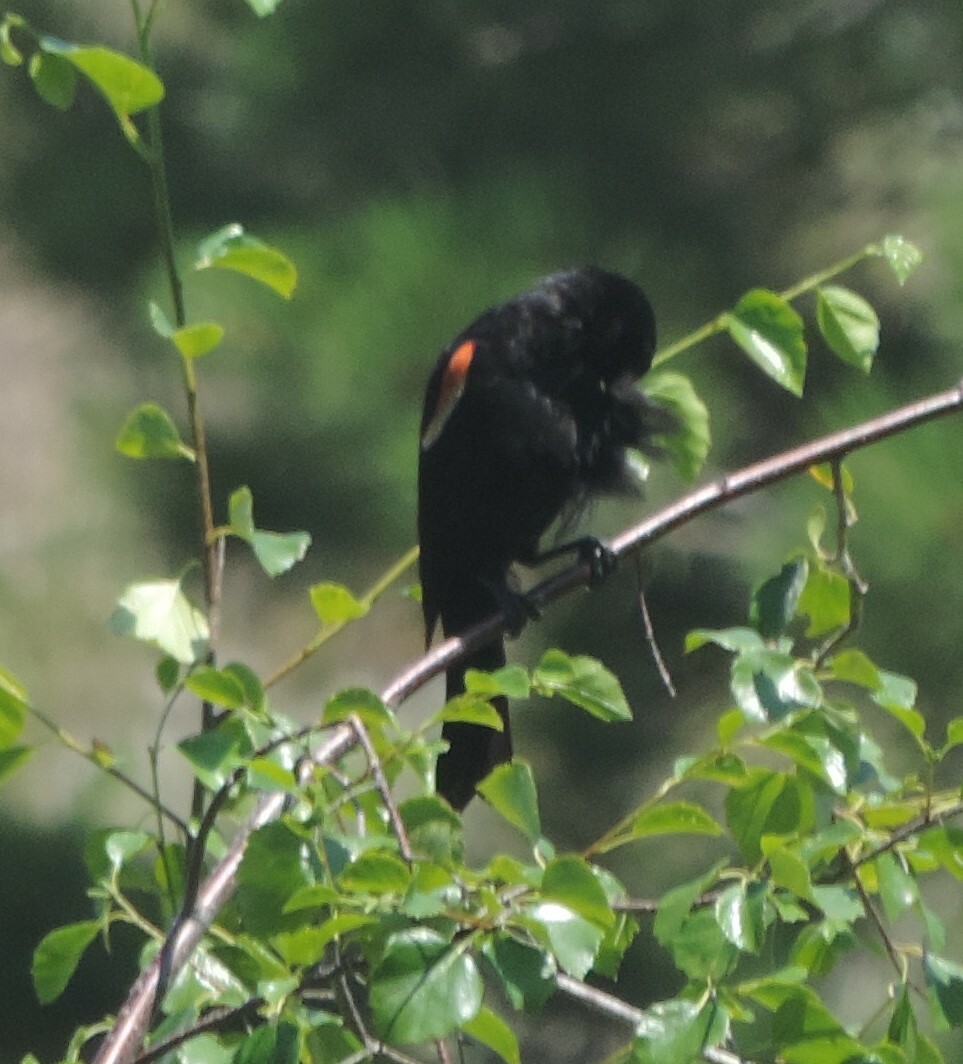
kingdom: Animalia
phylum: Chordata
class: Aves
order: Passeriformes
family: Icteridae
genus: Agelaius
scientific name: Agelaius phoeniceus
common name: Red-winged blackbird
